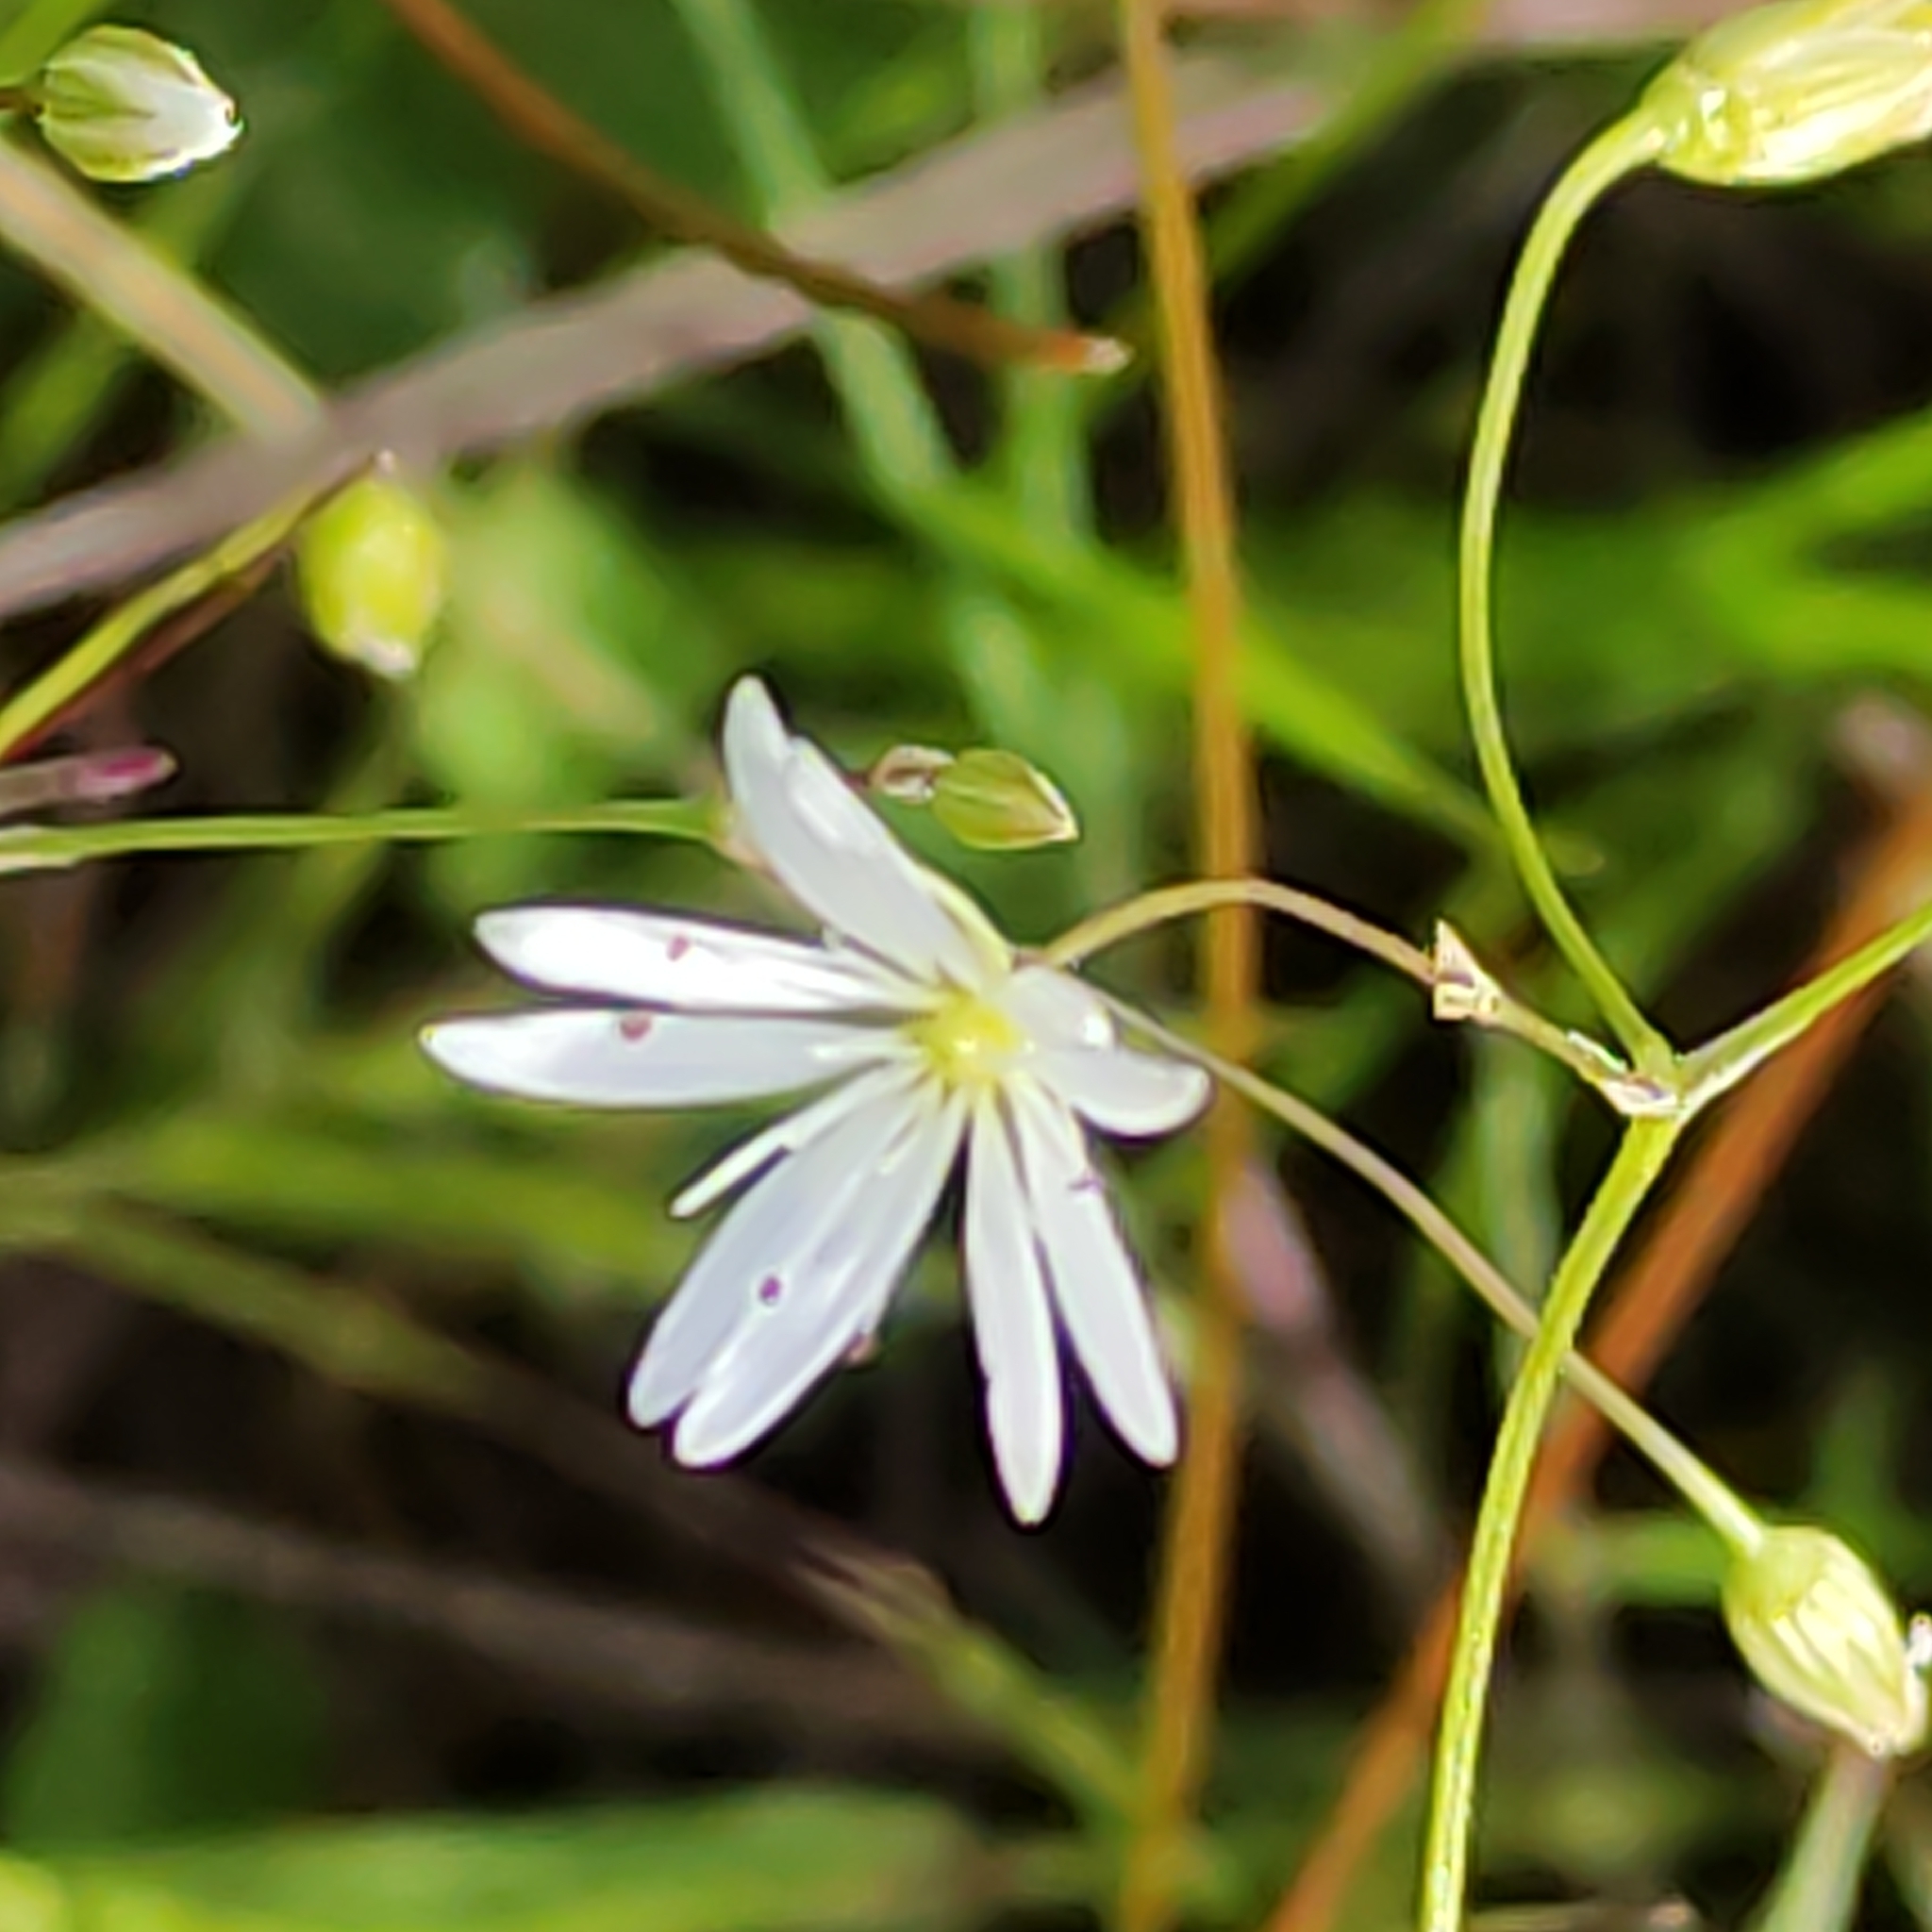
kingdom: Plantae
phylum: Tracheophyta
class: Magnoliopsida
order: Caryophyllales
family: Caryophyllaceae
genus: Stellaria
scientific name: Stellaria graminea
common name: Grass-like starwort
